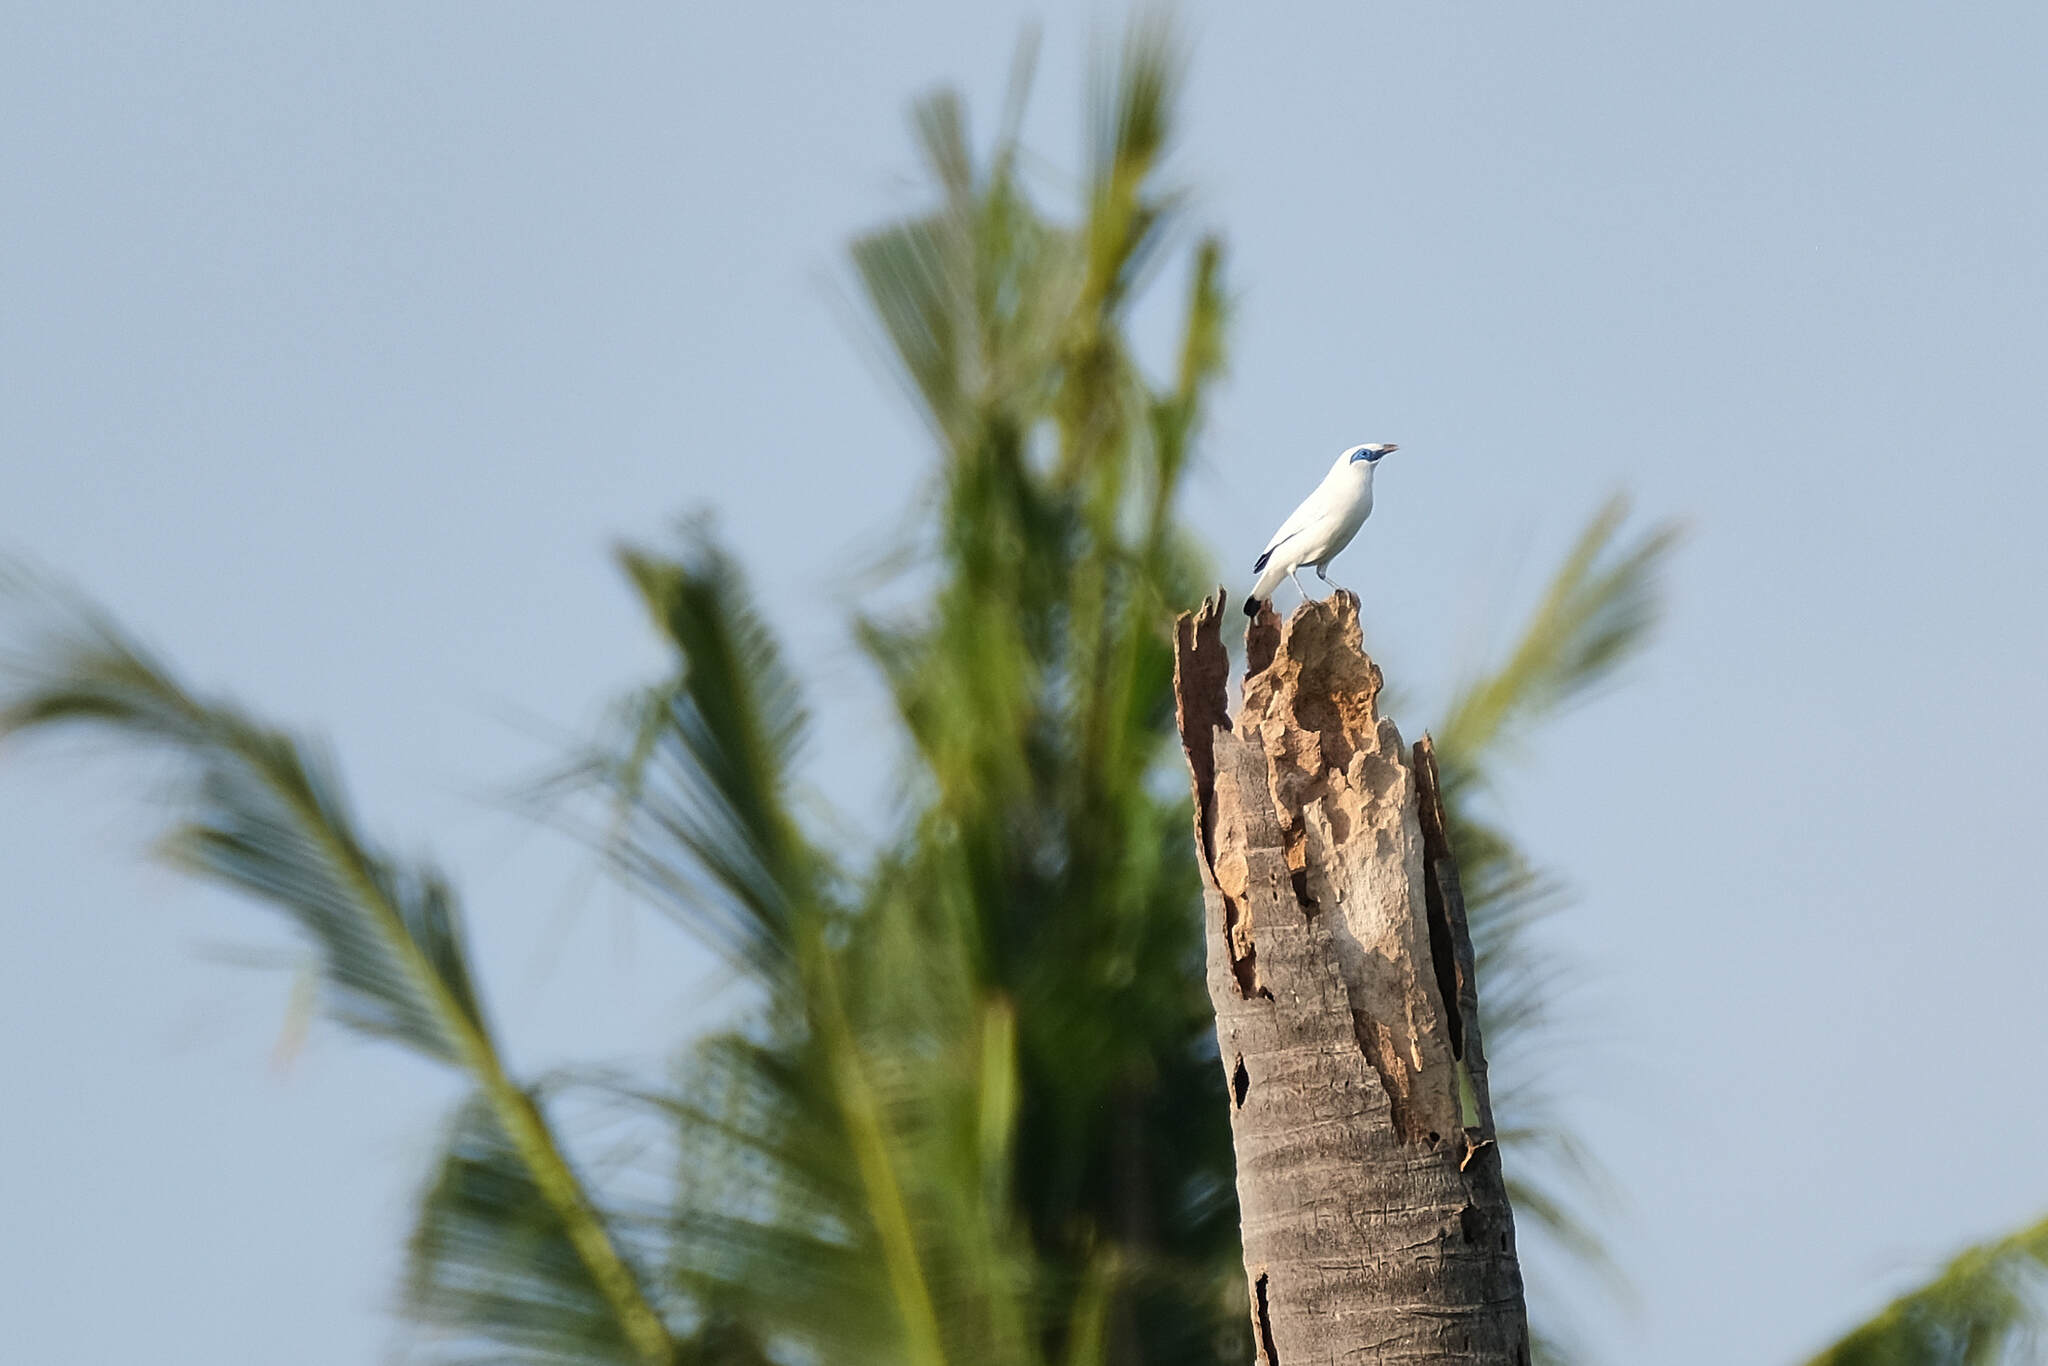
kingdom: Animalia
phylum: Chordata
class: Aves
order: Passeriformes
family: Sturnidae
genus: Leucopsar
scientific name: Leucopsar rothschildi
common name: Bali myna
